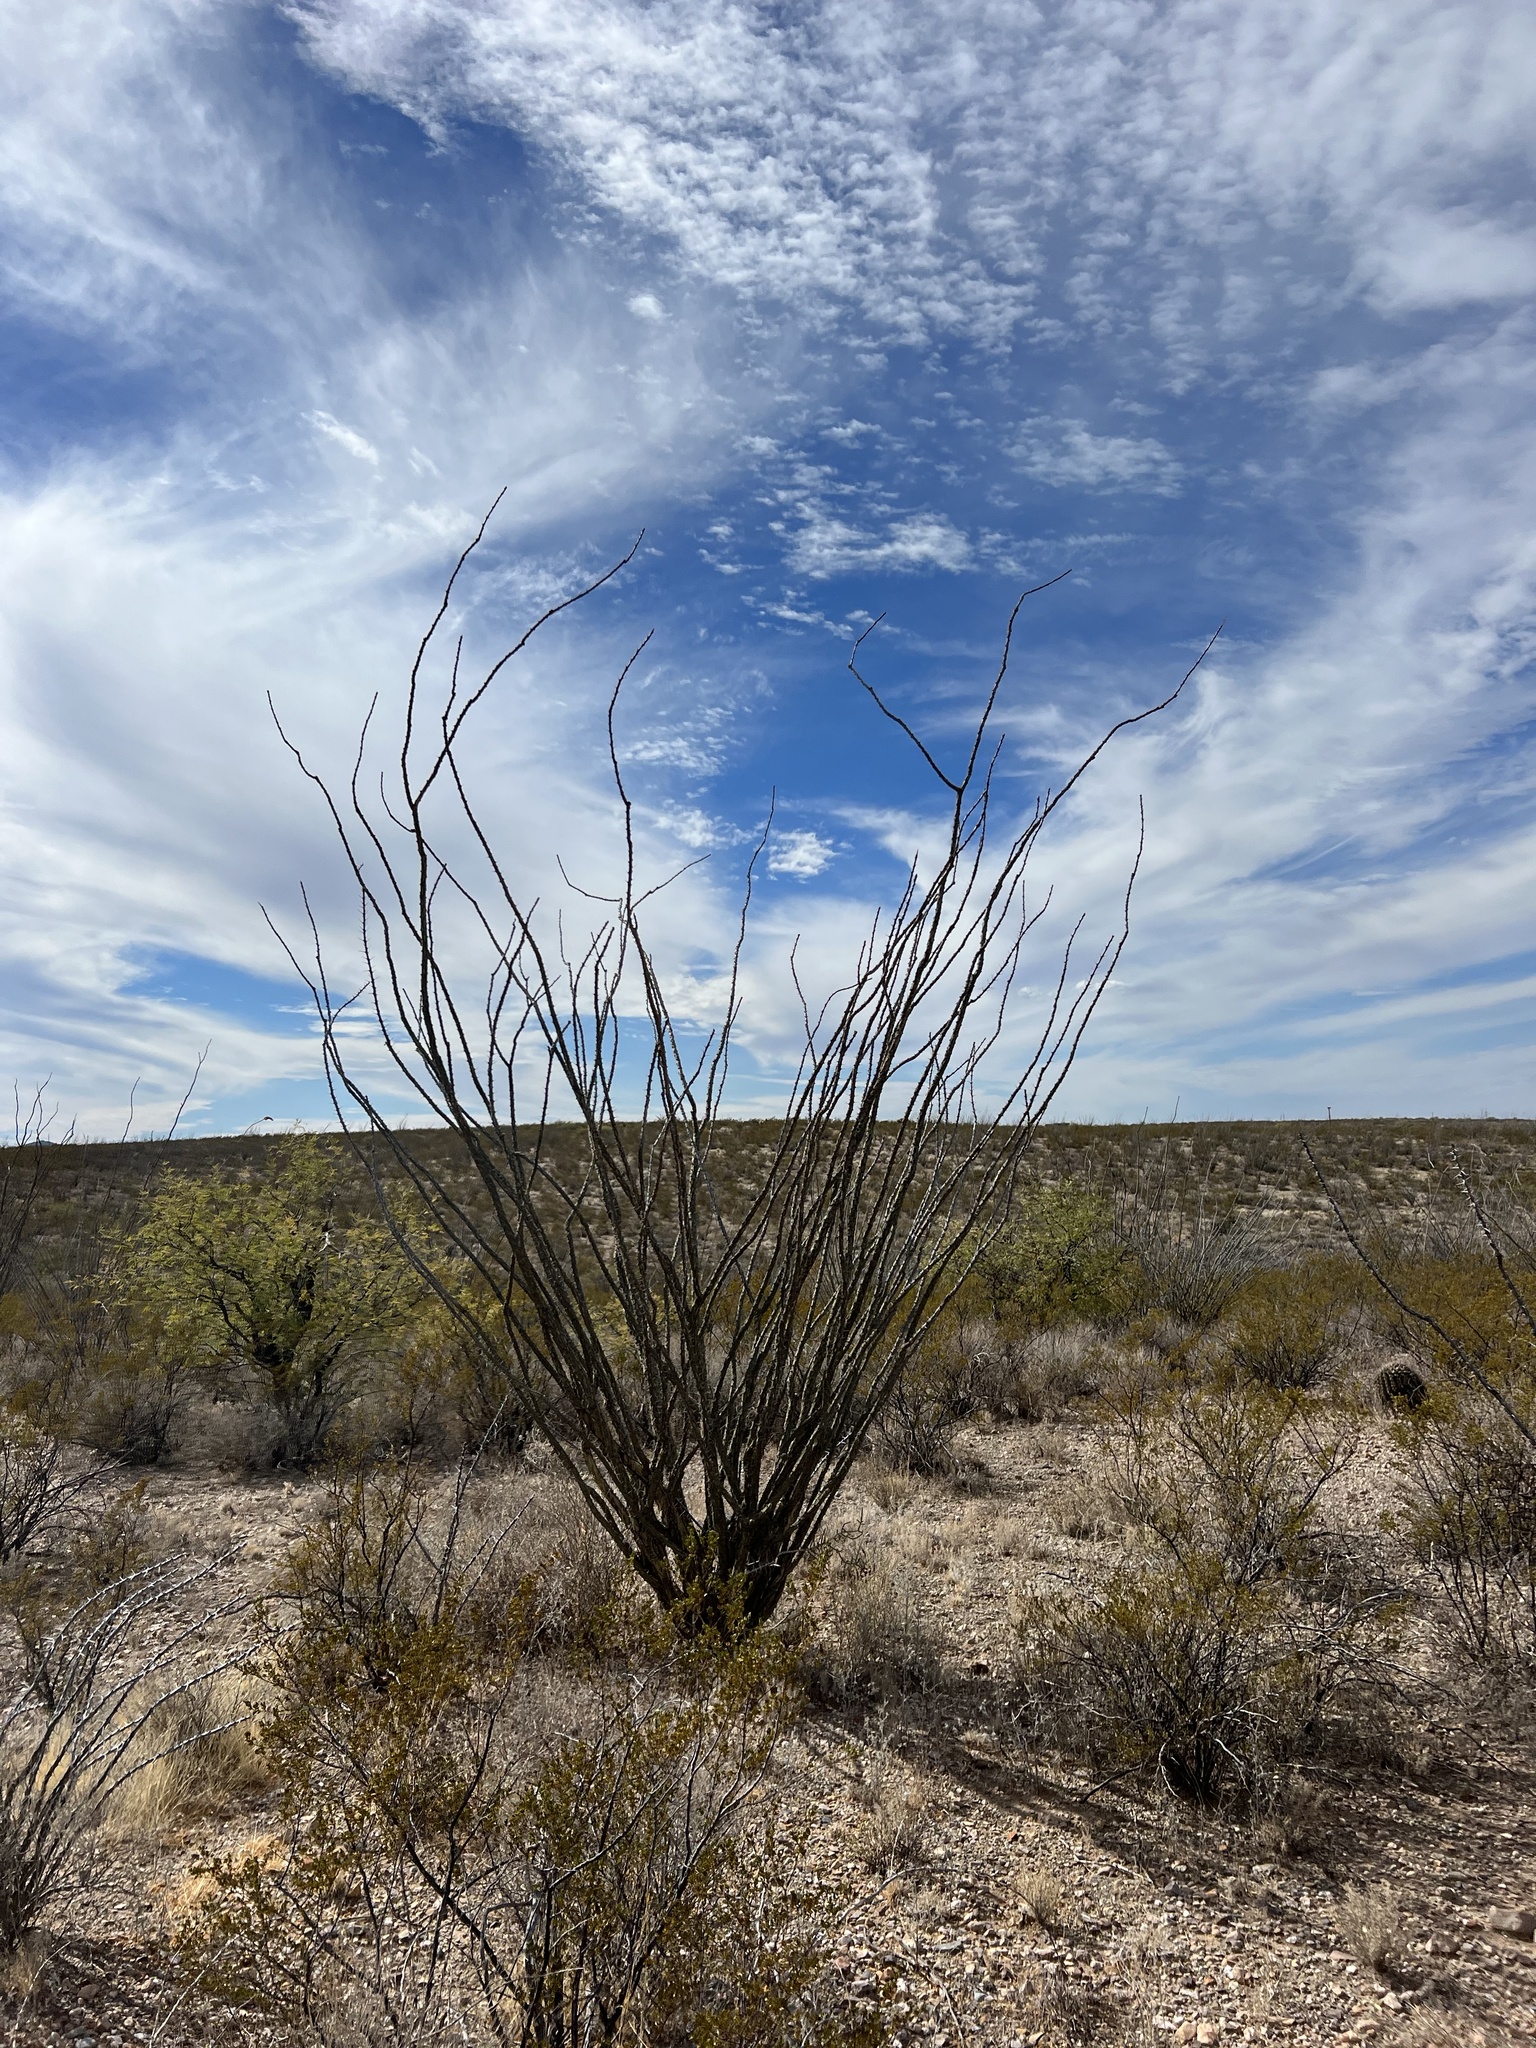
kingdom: Plantae
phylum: Tracheophyta
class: Magnoliopsida
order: Ericales
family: Fouquieriaceae
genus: Fouquieria
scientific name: Fouquieria splendens
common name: Vine-cactus
